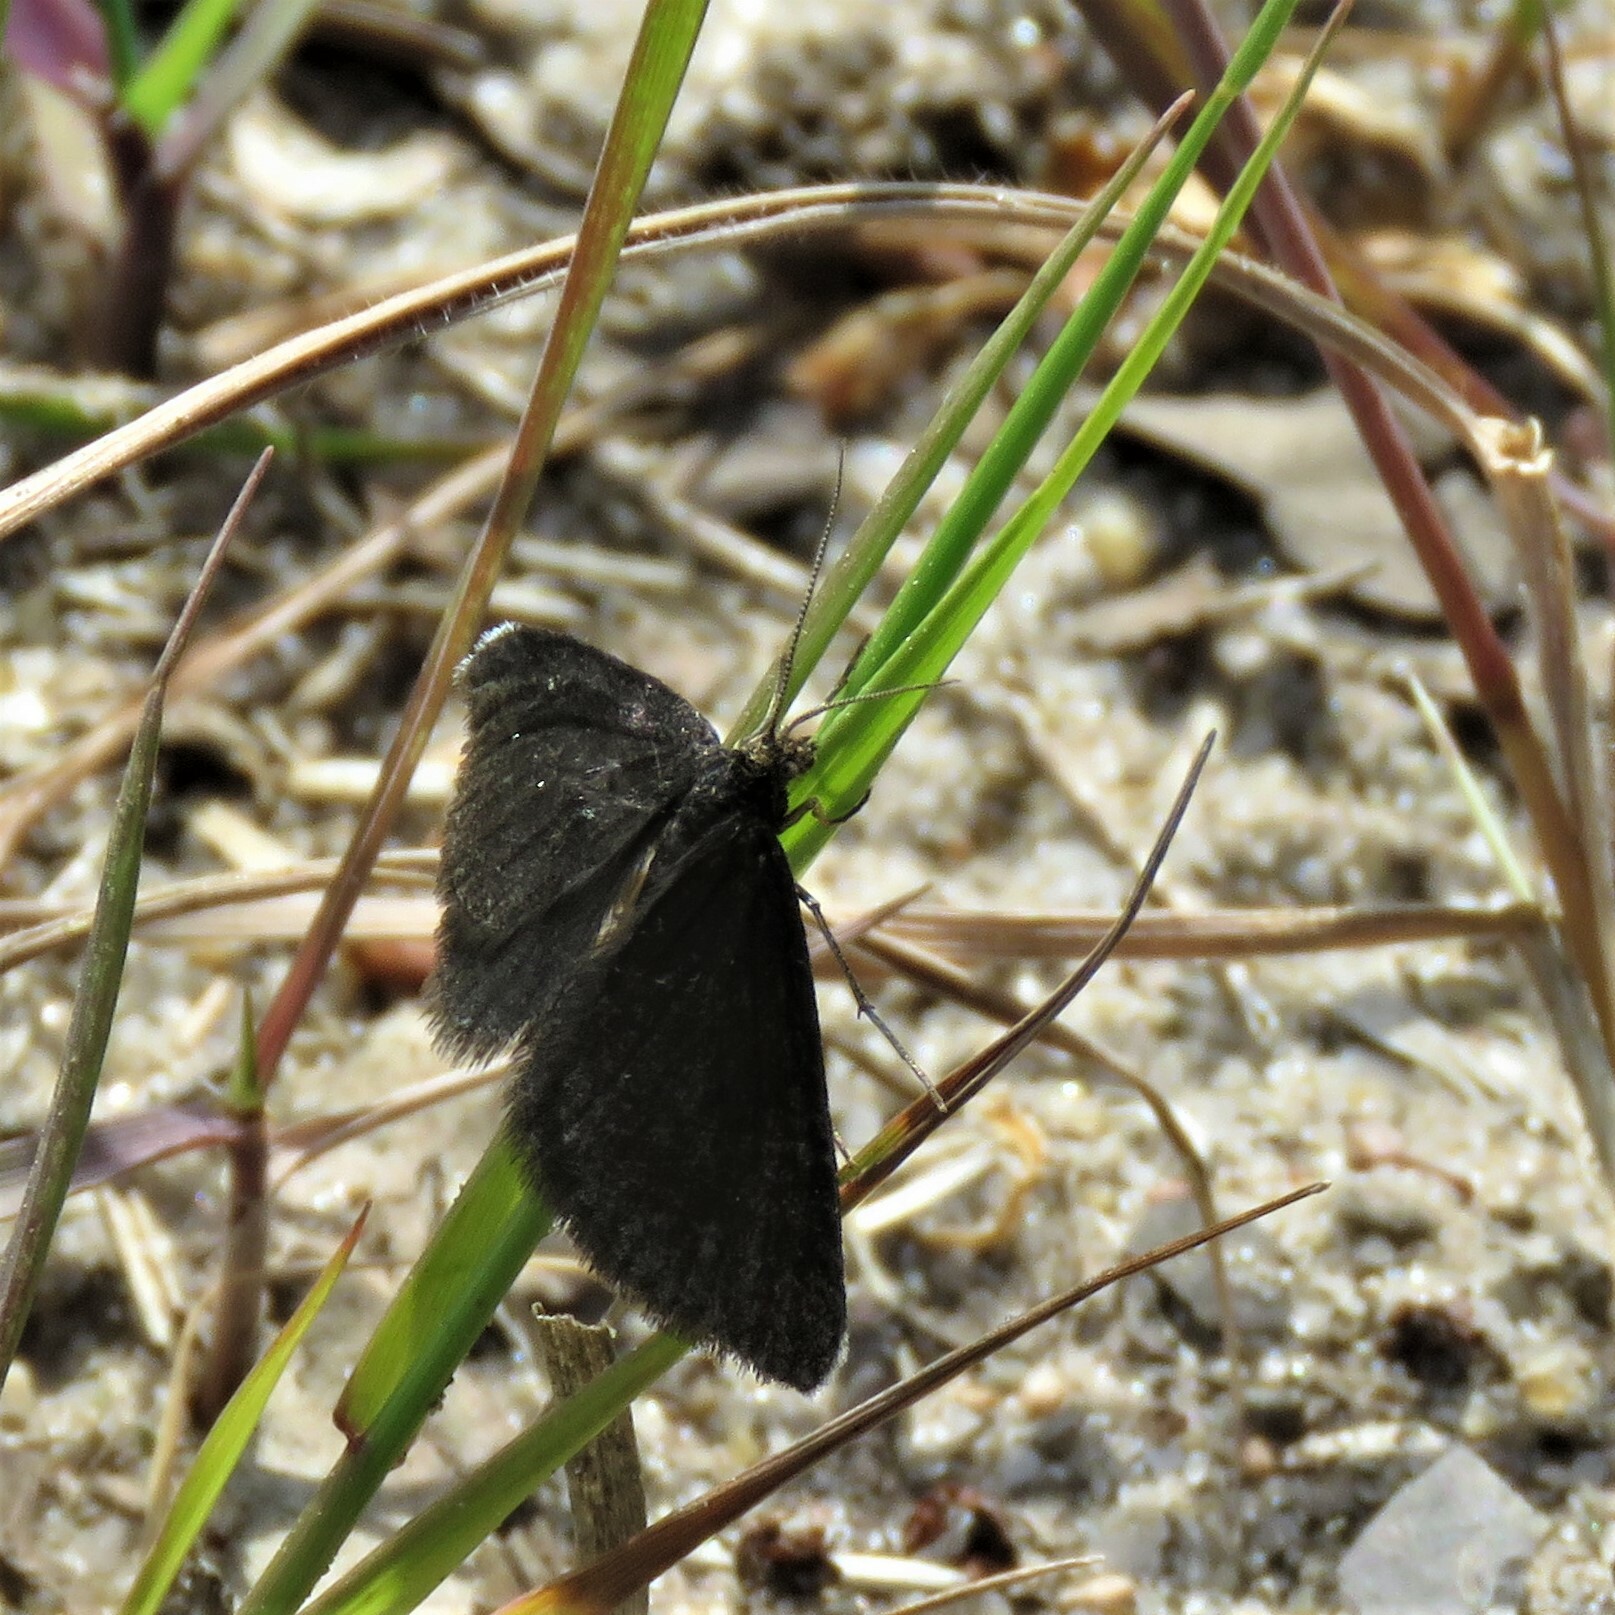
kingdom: Animalia
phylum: Arthropoda
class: Insecta
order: Lepidoptera
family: Geometridae
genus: Odezia
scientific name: Odezia atrata
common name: Chimney sweeper
